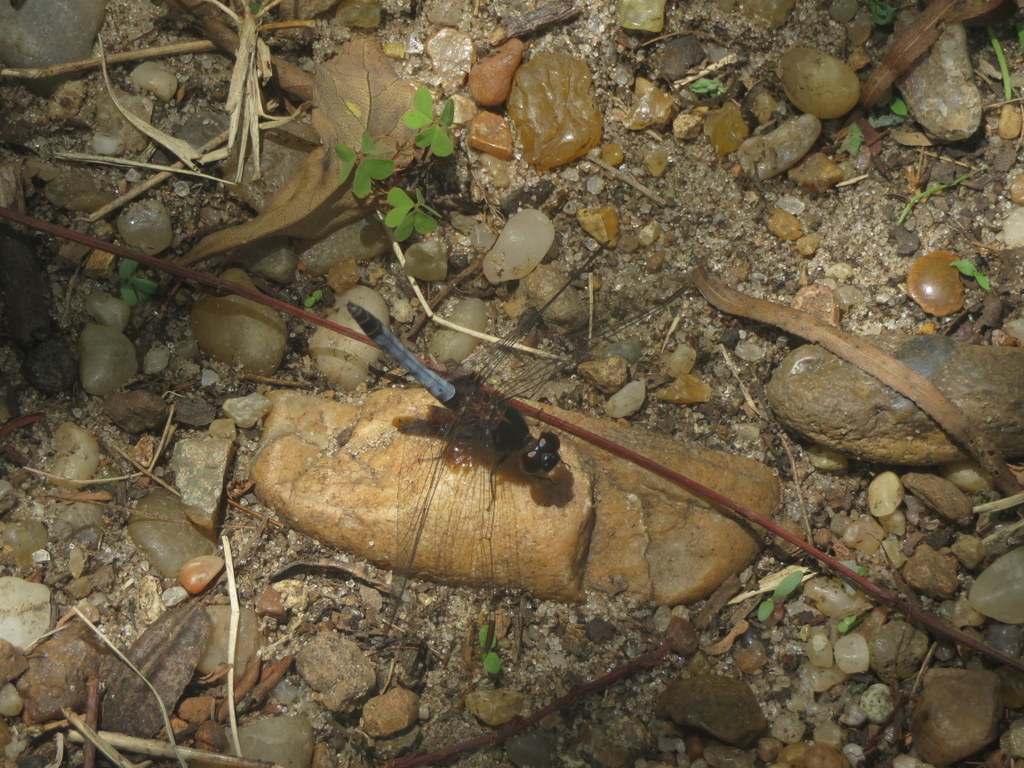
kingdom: Animalia
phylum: Arthropoda
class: Insecta
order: Odonata
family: Libellulidae
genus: Erythrodiplax
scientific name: Erythrodiplax media
